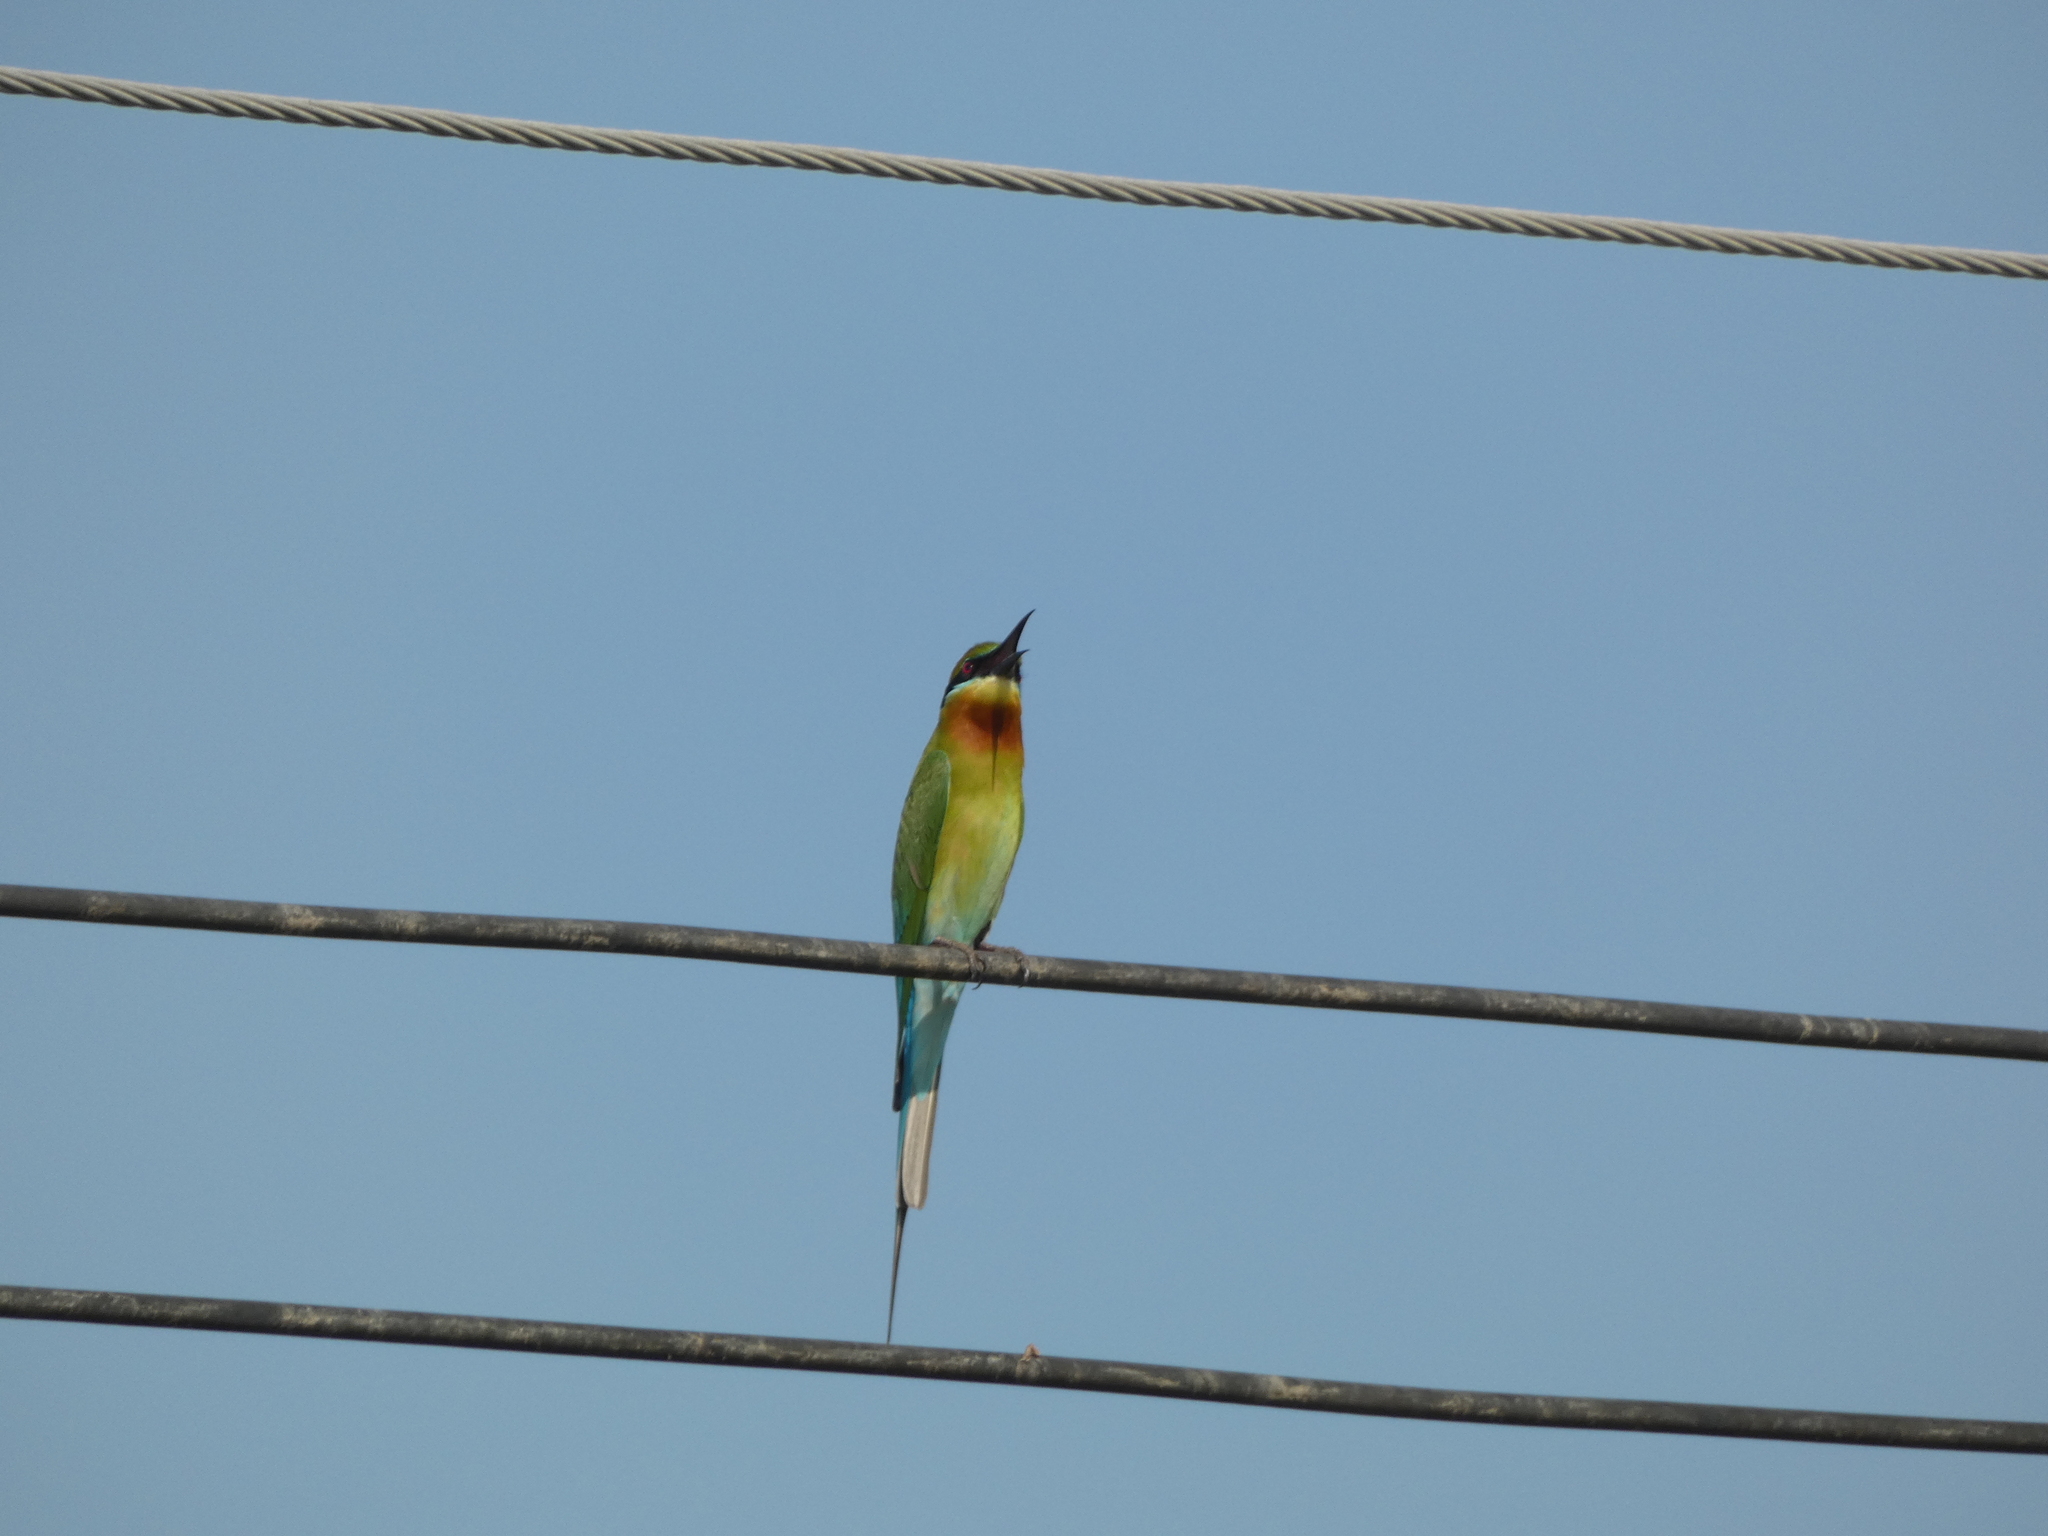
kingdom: Animalia
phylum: Chordata
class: Aves
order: Coraciiformes
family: Meropidae
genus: Merops
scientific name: Merops philippinus
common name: Blue-tailed bee-eater
